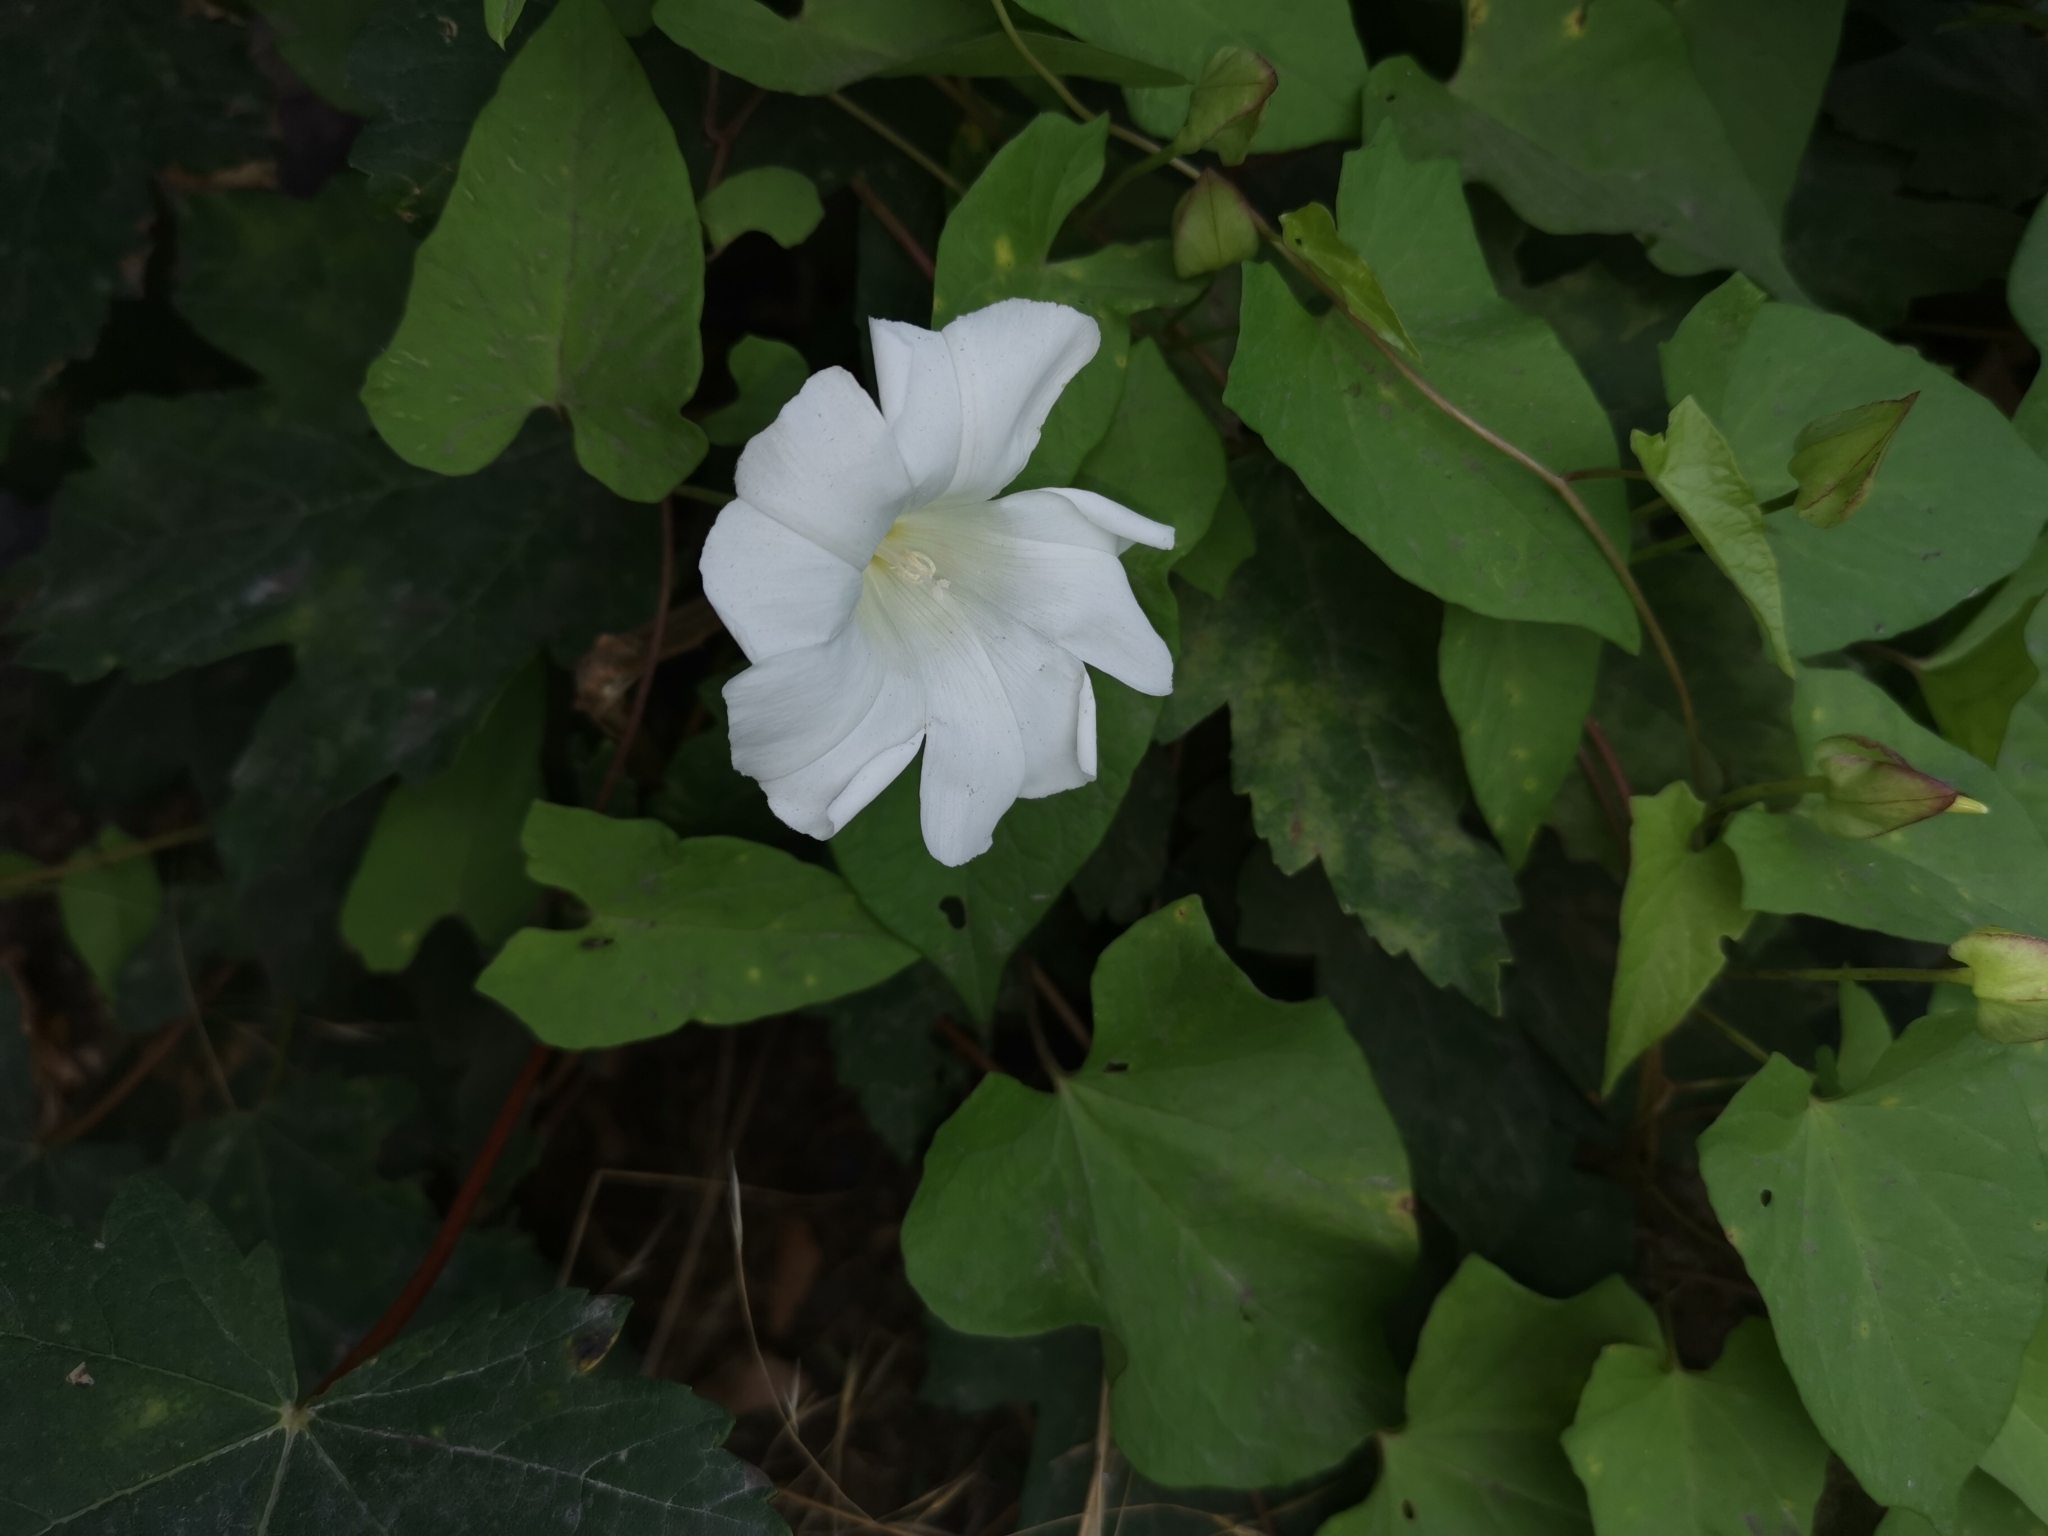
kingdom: Plantae
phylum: Tracheophyta
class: Magnoliopsida
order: Solanales
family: Convolvulaceae
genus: Calystegia
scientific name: Calystegia sepium
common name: Hedge bindweed
